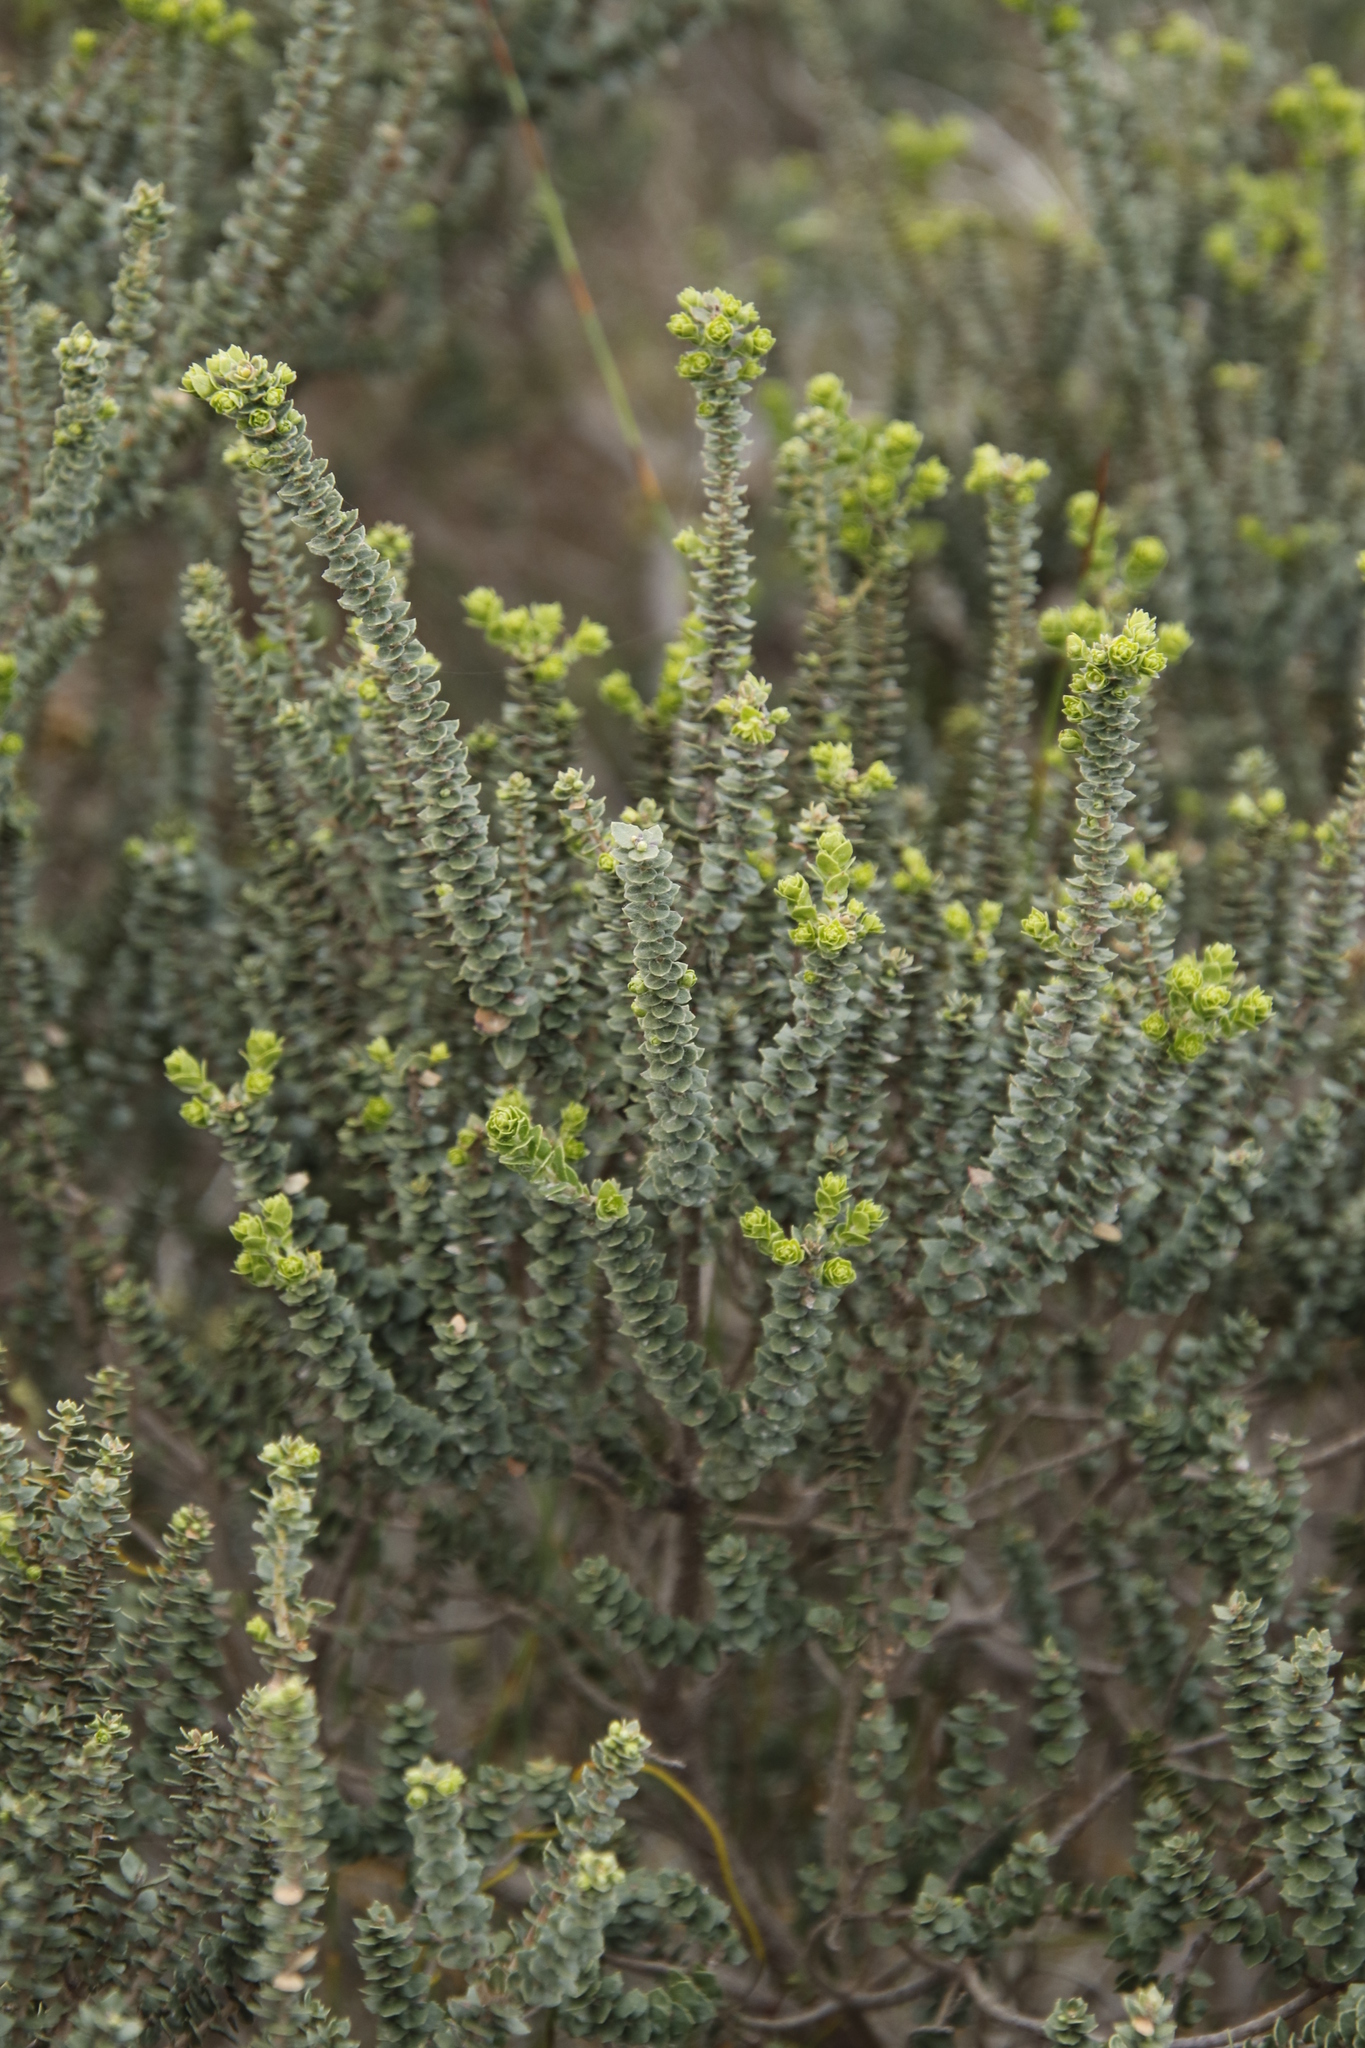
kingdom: Plantae
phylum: Tracheophyta
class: Magnoliopsida
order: Fagales
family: Myricaceae
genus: Morella
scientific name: Morella cordifolia
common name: Waxberry
